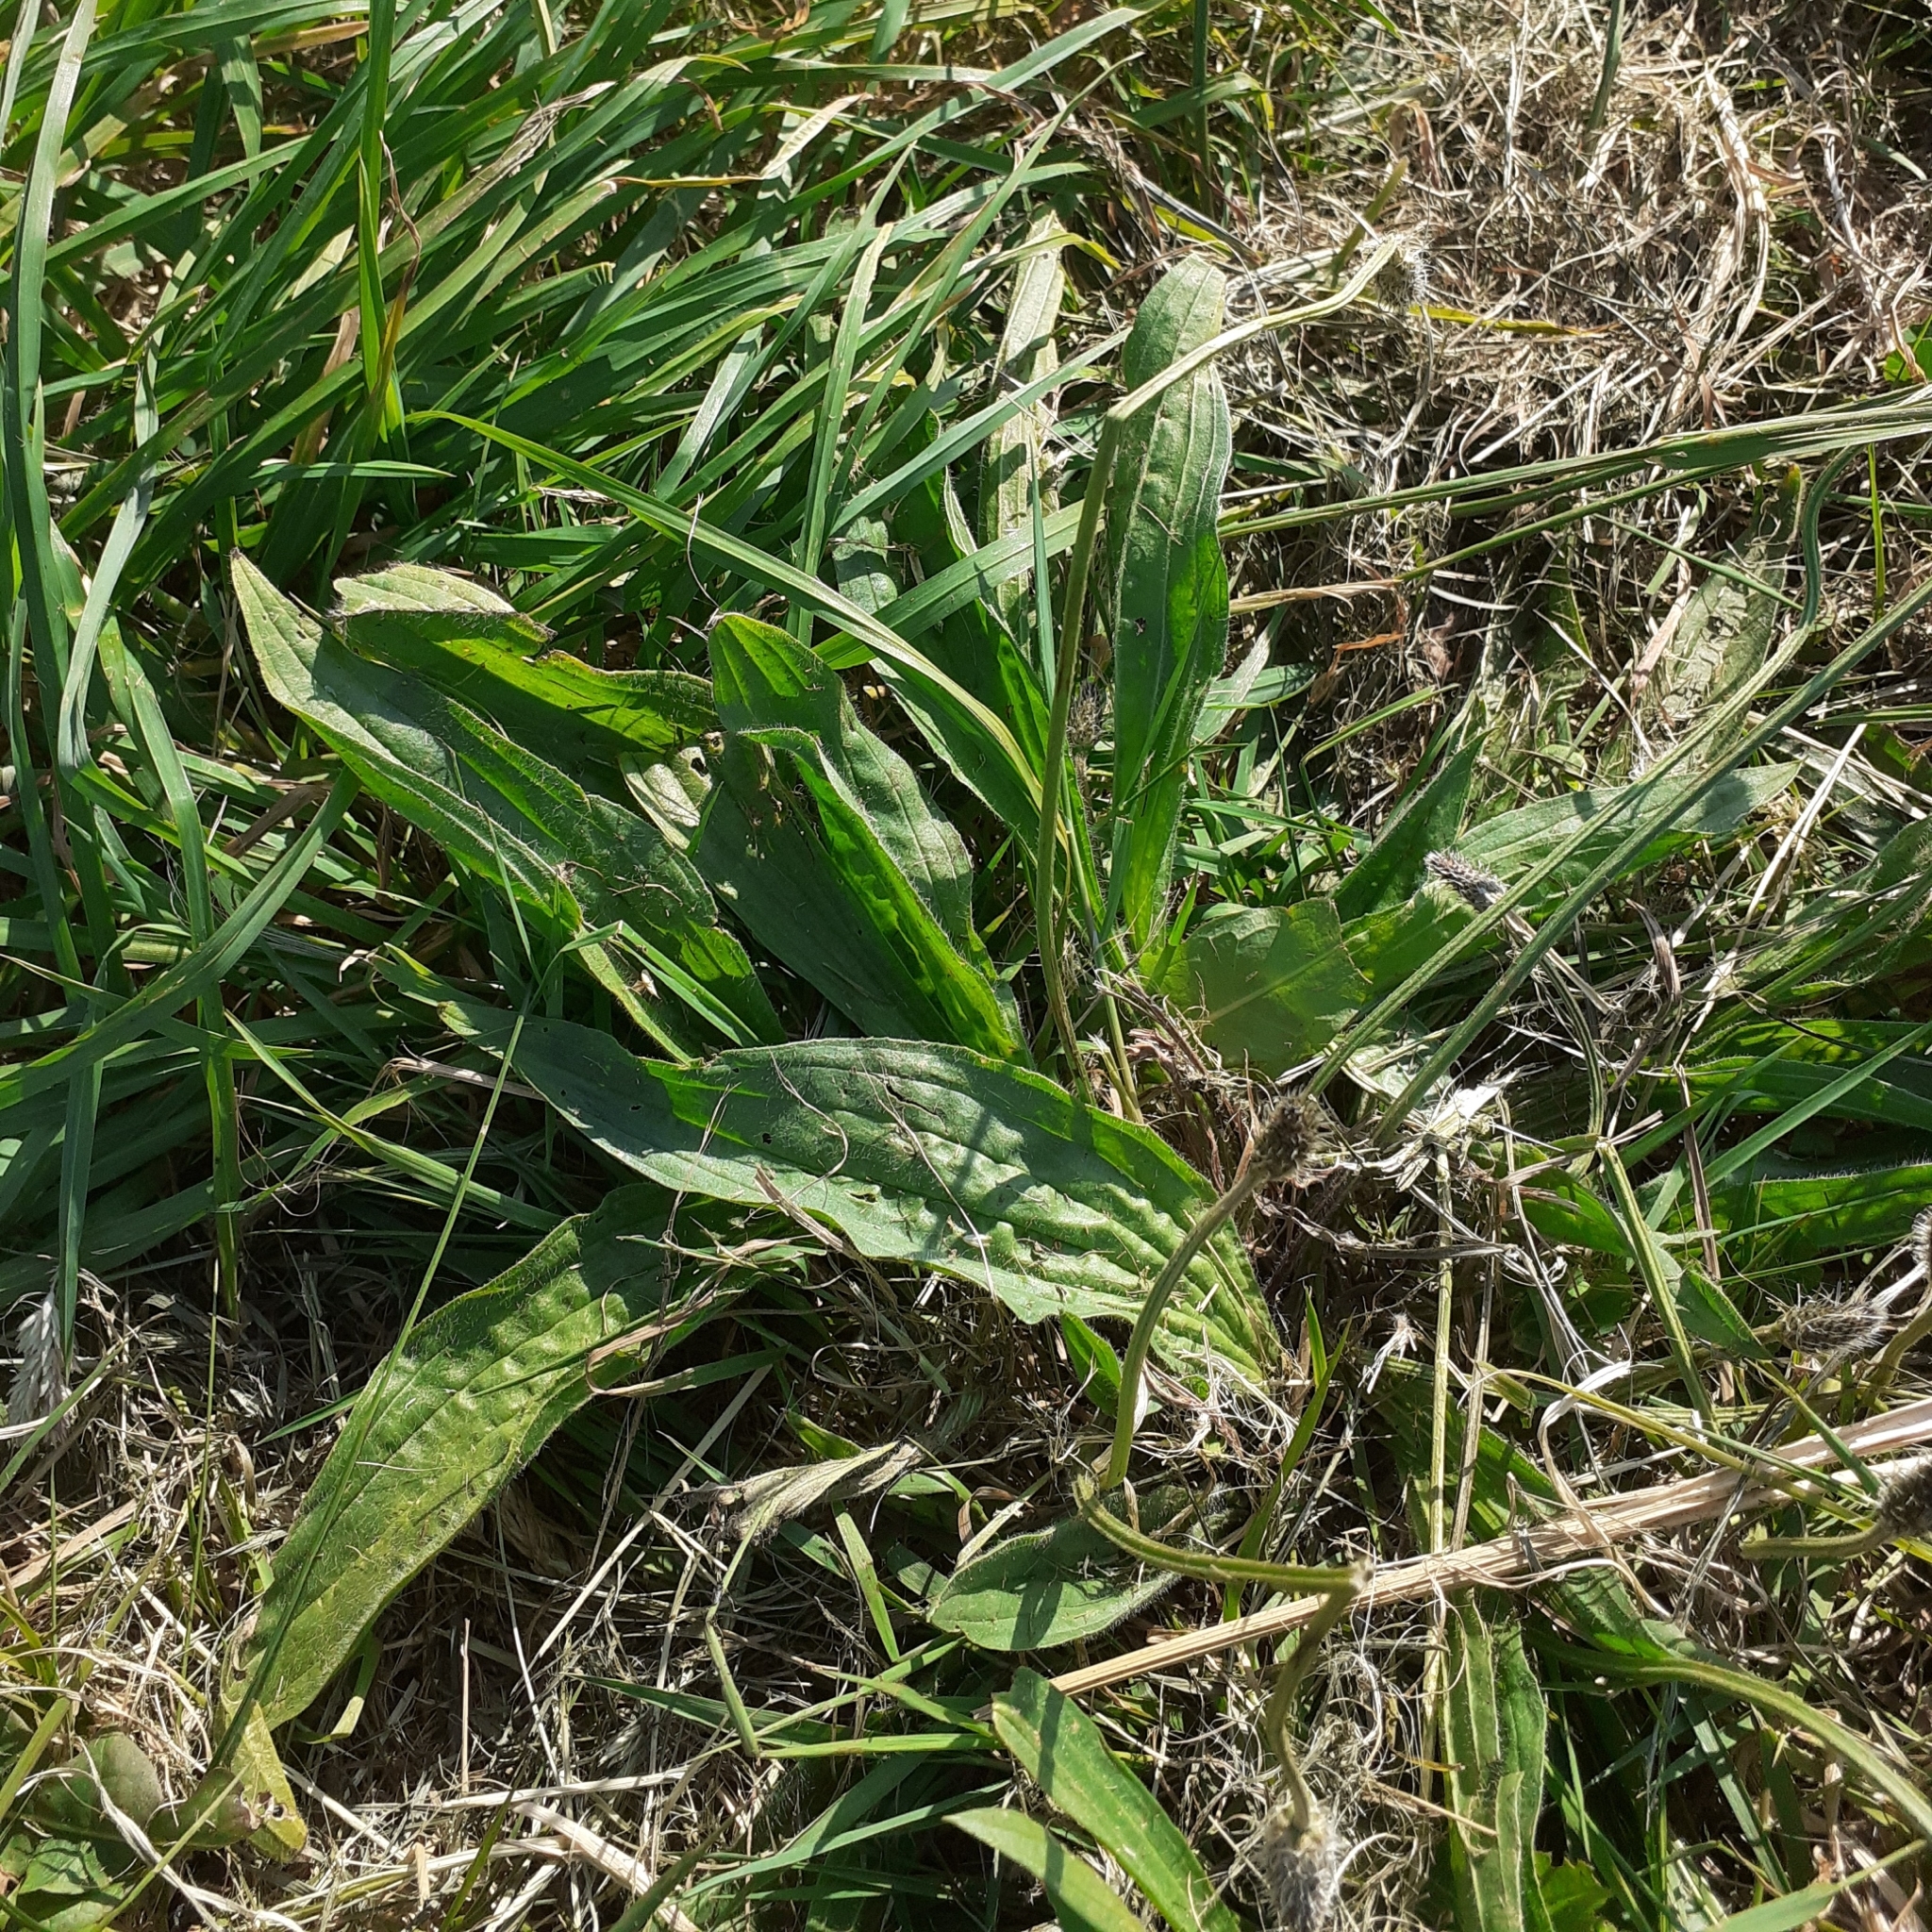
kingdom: Plantae
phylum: Tracheophyta
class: Magnoliopsida
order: Lamiales
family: Plantaginaceae
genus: Plantago
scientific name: Plantago lanceolata
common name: Ribwort plantain
